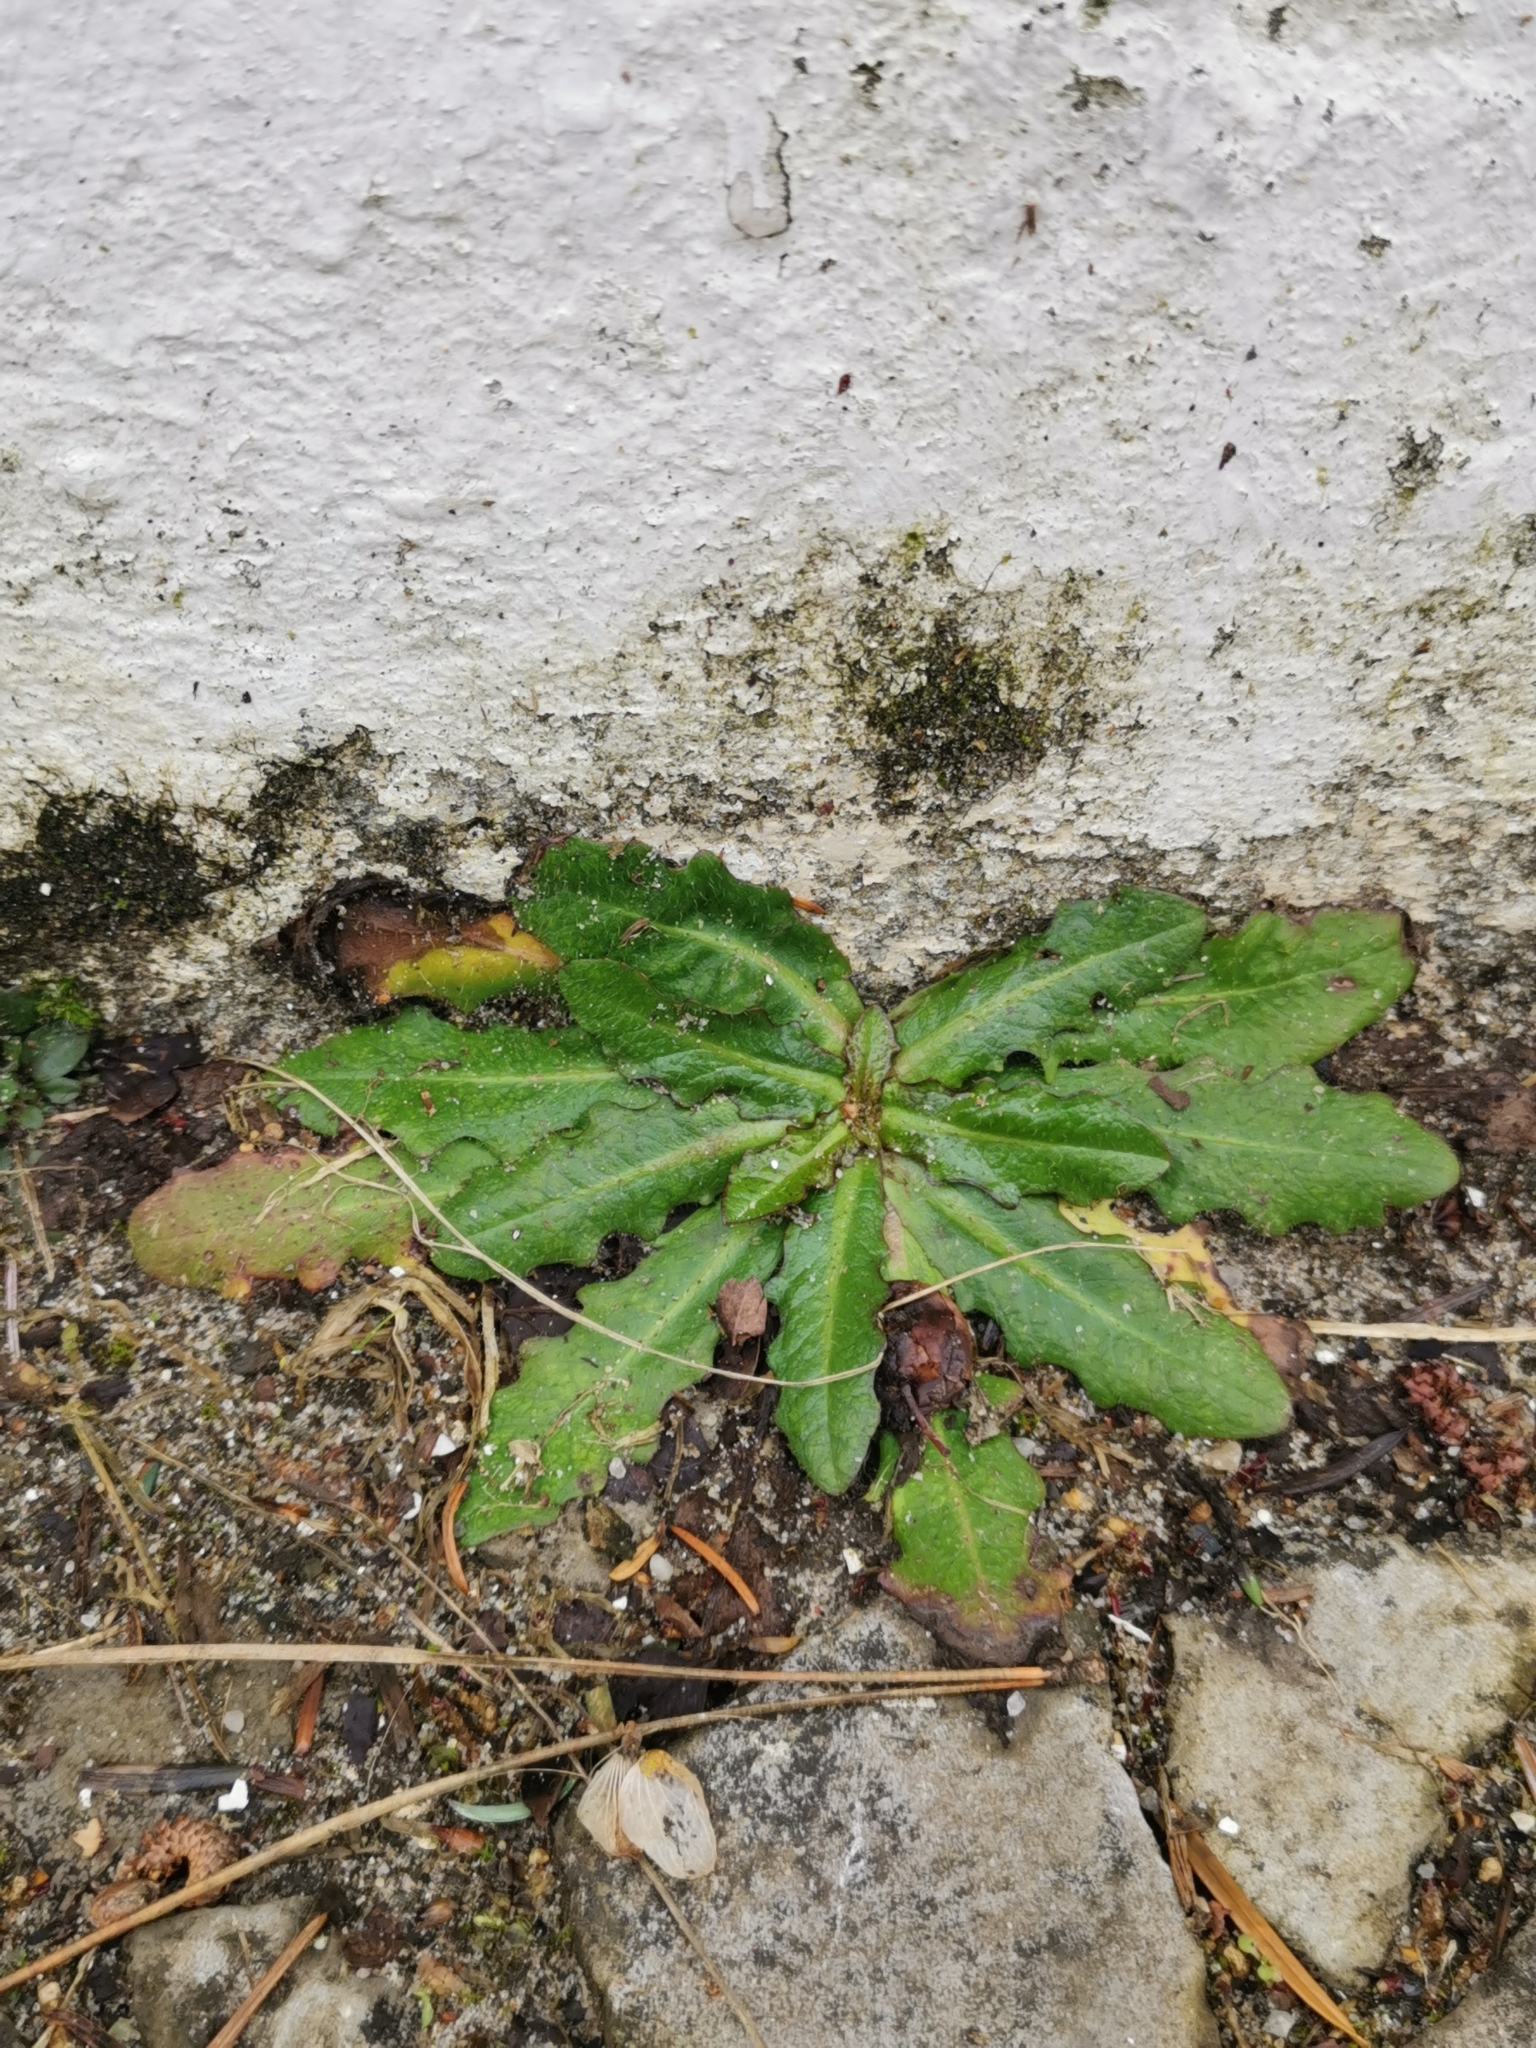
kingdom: Plantae
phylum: Tracheophyta
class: Magnoliopsida
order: Asterales
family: Asteraceae
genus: Hypochaeris
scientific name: Hypochaeris radicata
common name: Flatweed
